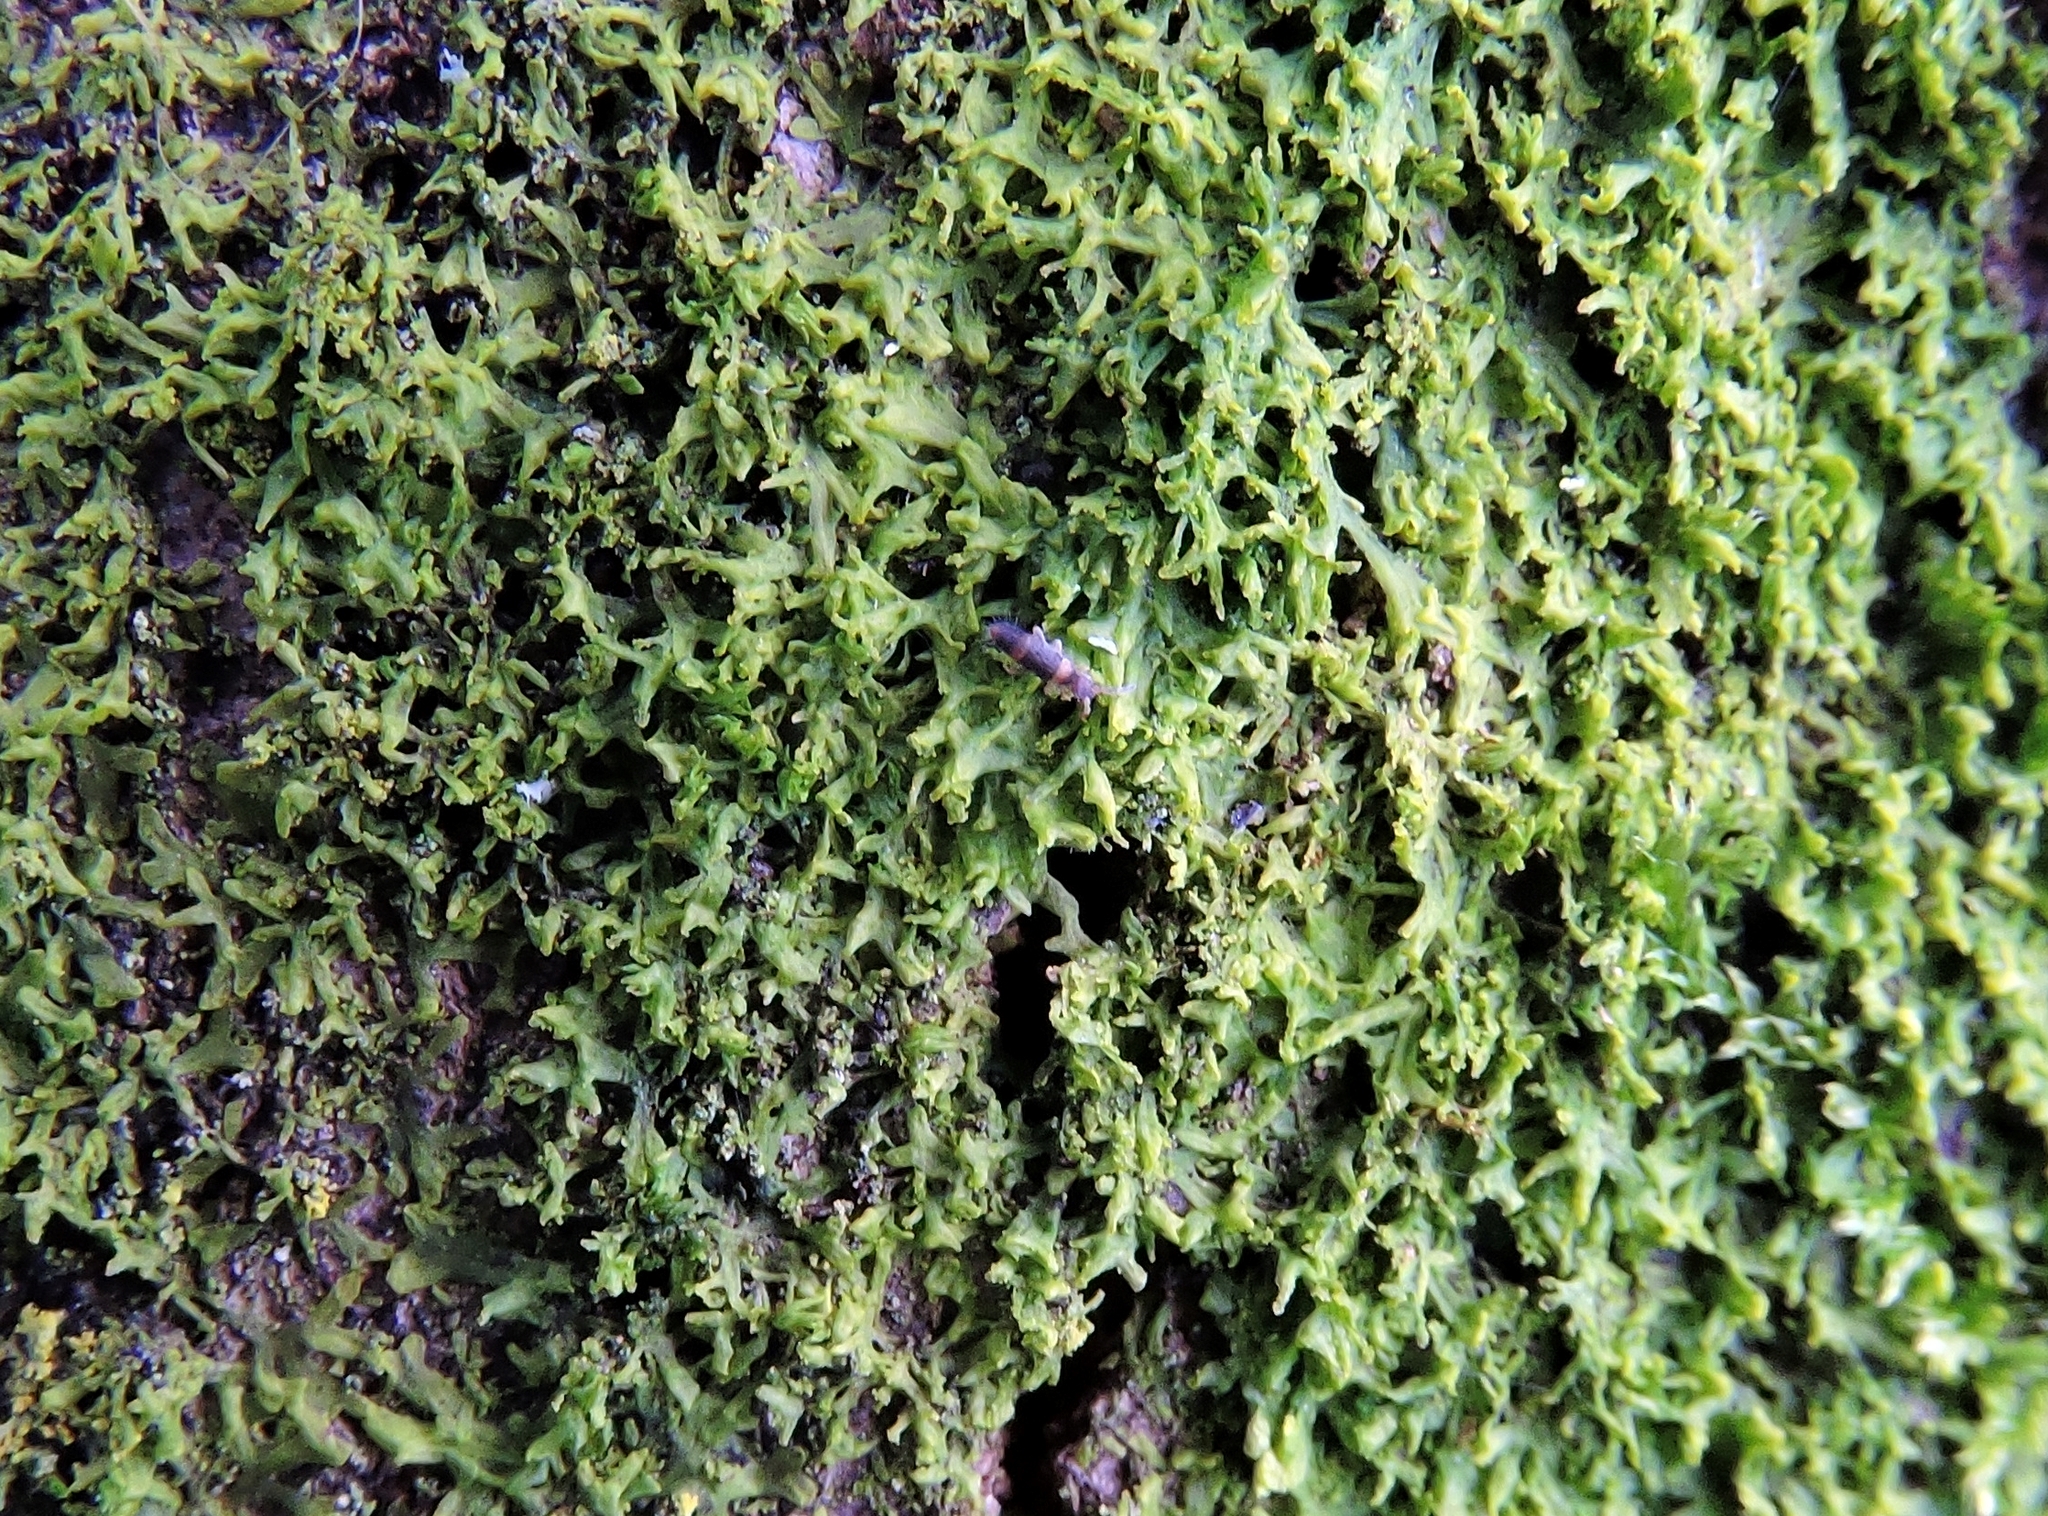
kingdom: Animalia
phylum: Arthropoda
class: Collembola
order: Entomobryomorpha
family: Entomobryidae
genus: Entomobrya
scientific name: Entomobrya albocincta
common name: Springtail
